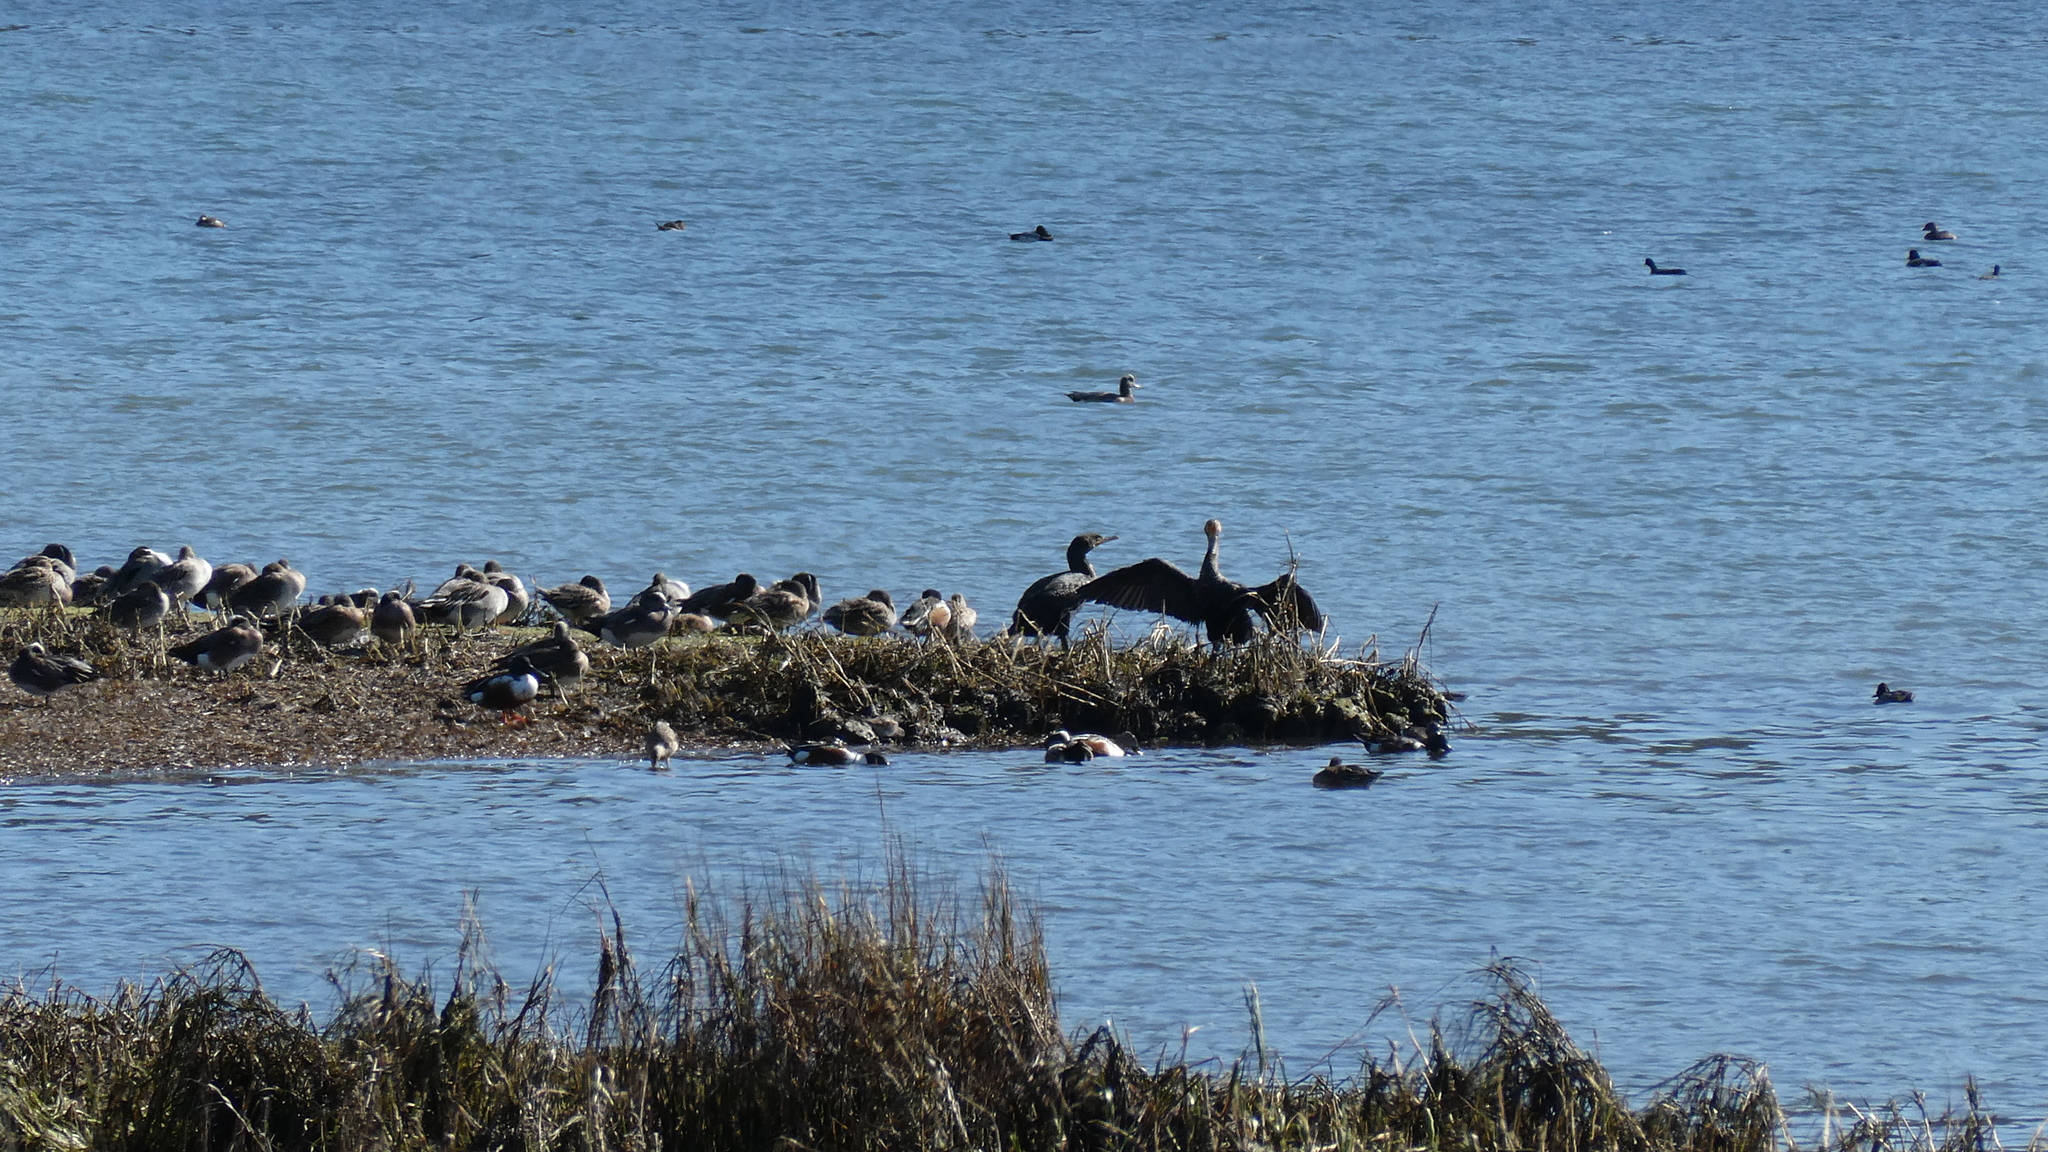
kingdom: Animalia
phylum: Chordata
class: Aves
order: Anseriformes
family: Anatidae
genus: Spatula
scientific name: Spatula clypeata
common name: Northern shoveler
